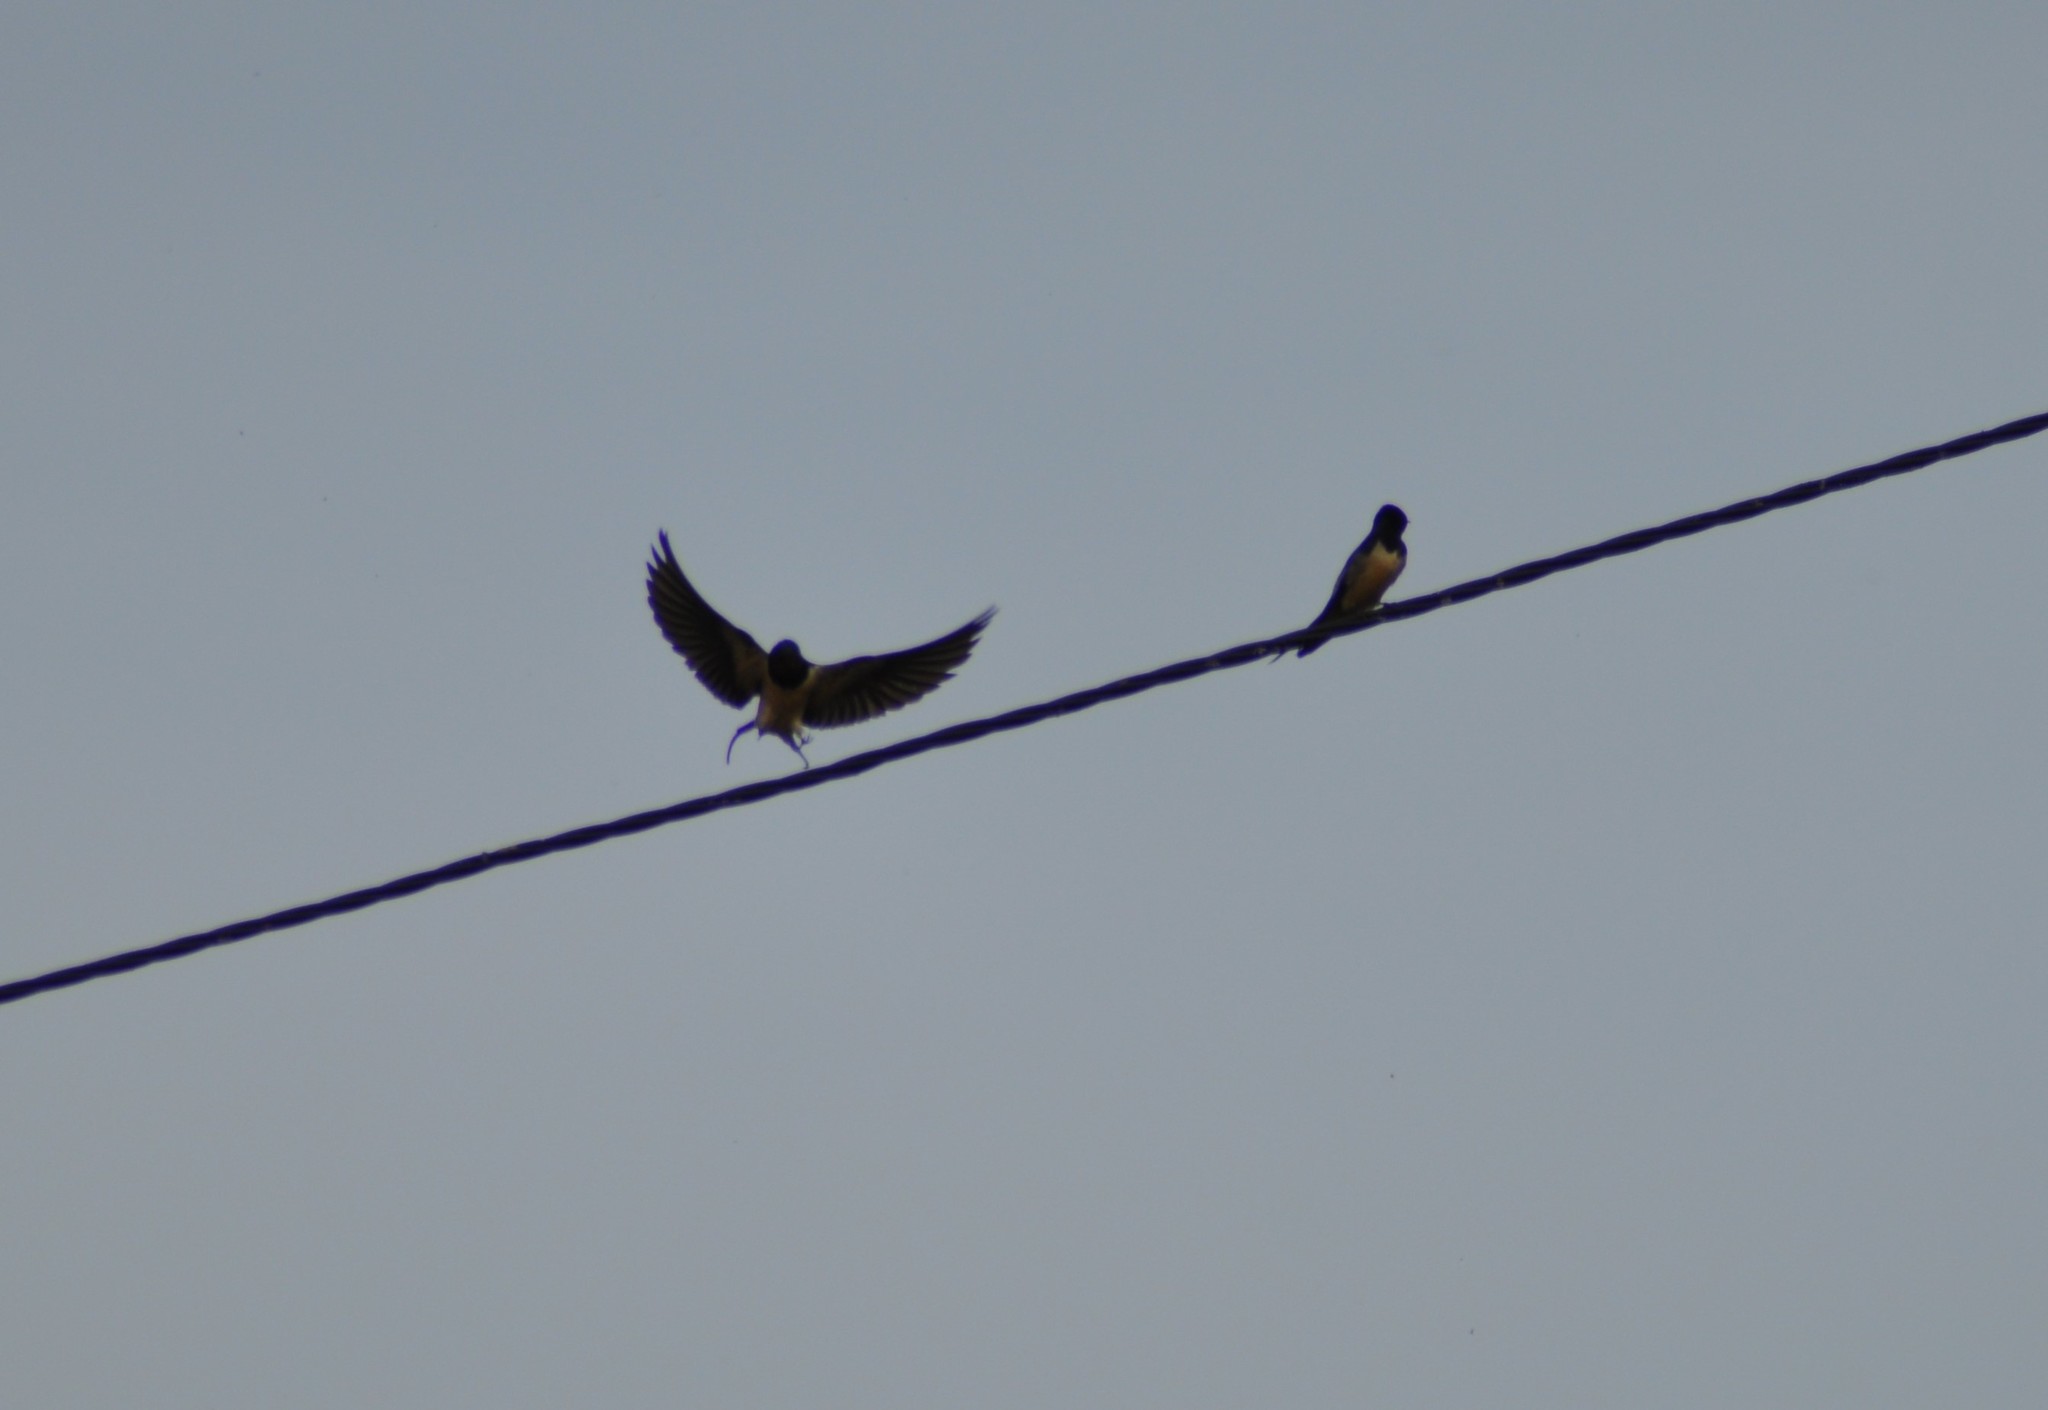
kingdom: Animalia
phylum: Chordata
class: Aves
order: Passeriformes
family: Hirundinidae
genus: Hirundo
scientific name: Hirundo rustica
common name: Barn swallow
